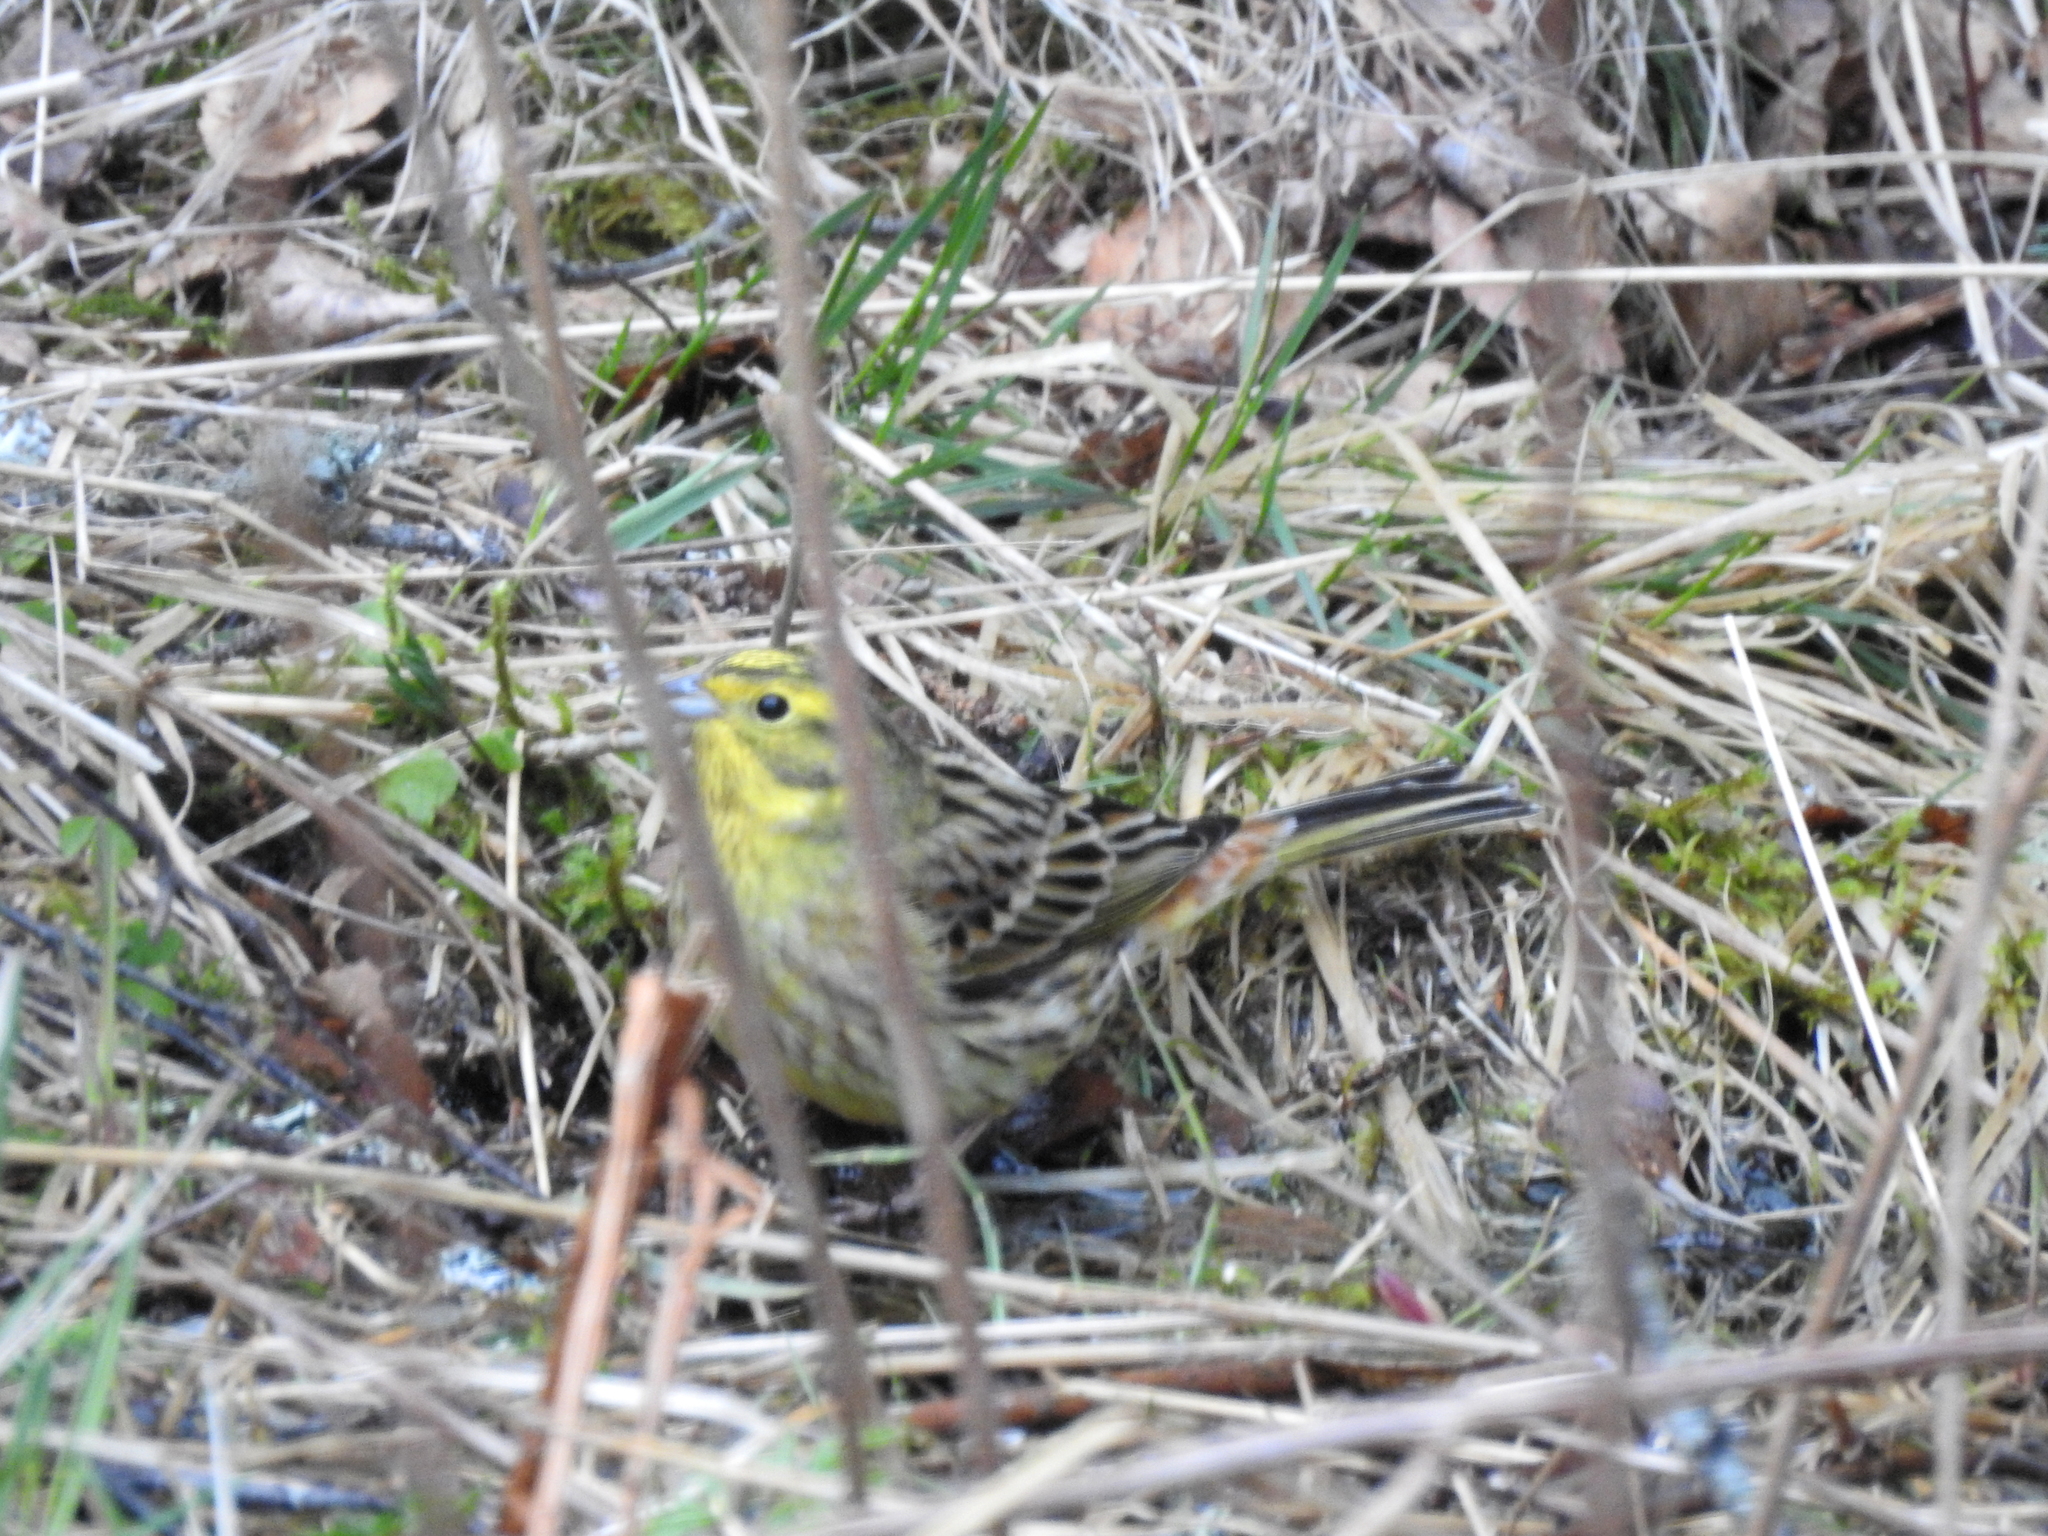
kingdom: Animalia
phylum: Chordata
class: Aves
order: Passeriformes
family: Emberizidae
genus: Emberiza
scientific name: Emberiza citrinella
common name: Yellowhammer
